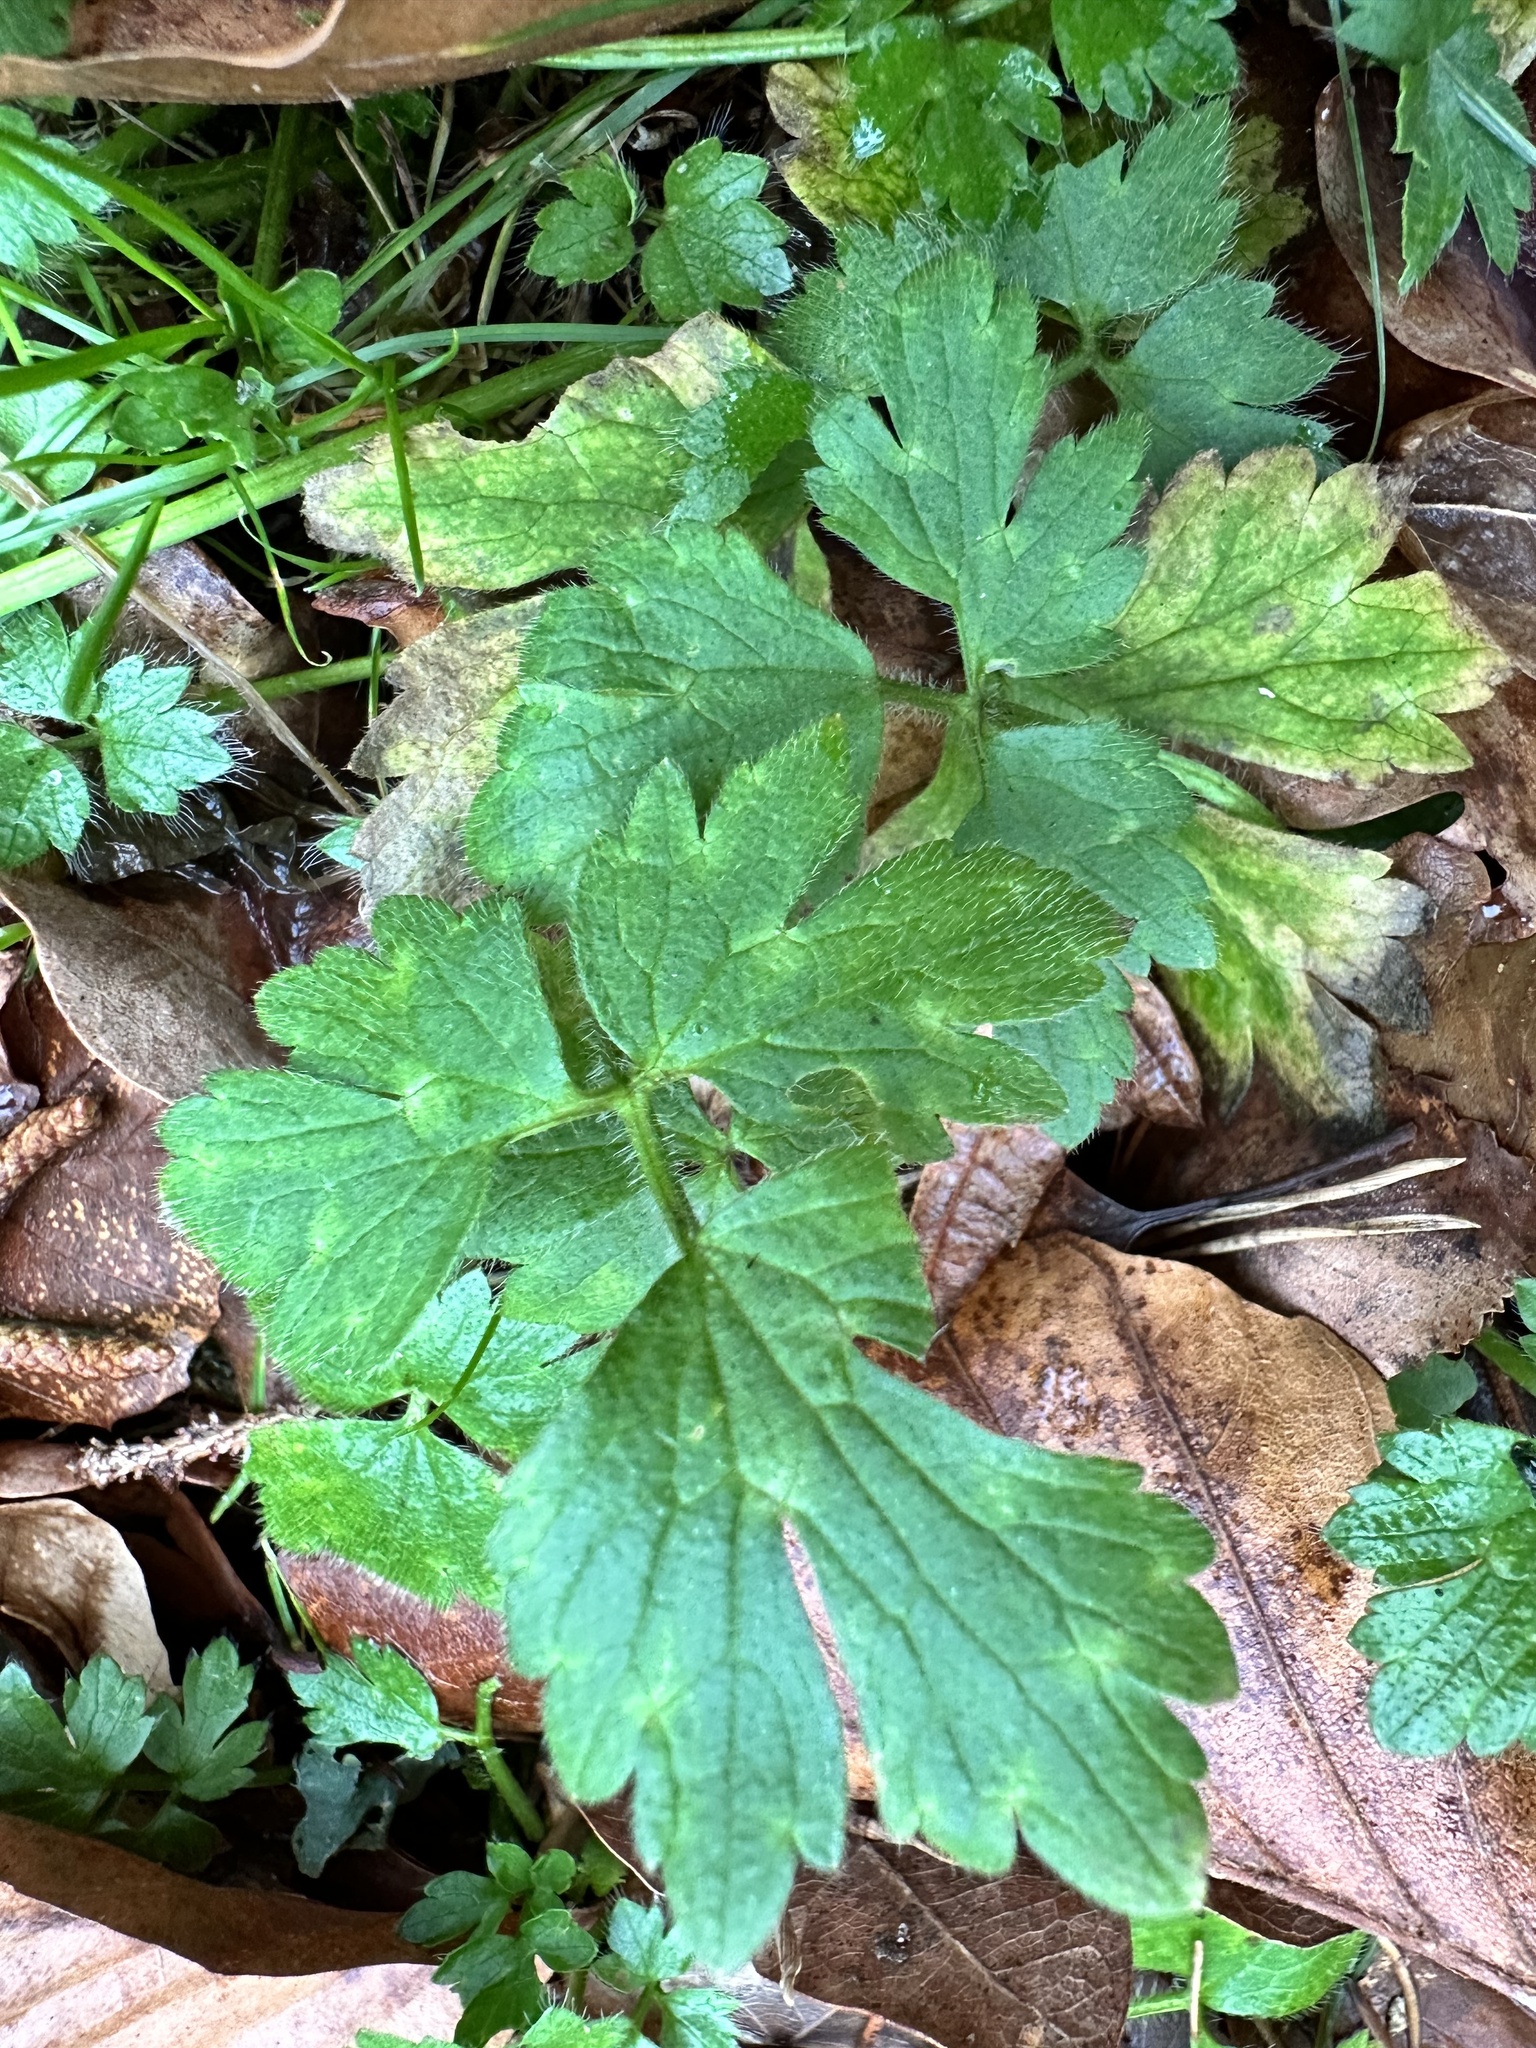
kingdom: Plantae
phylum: Tracheophyta
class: Magnoliopsida
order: Ranunculales
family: Ranunculaceae
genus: Ranunculus
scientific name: Ranunculus repens
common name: Creeping buttercup
